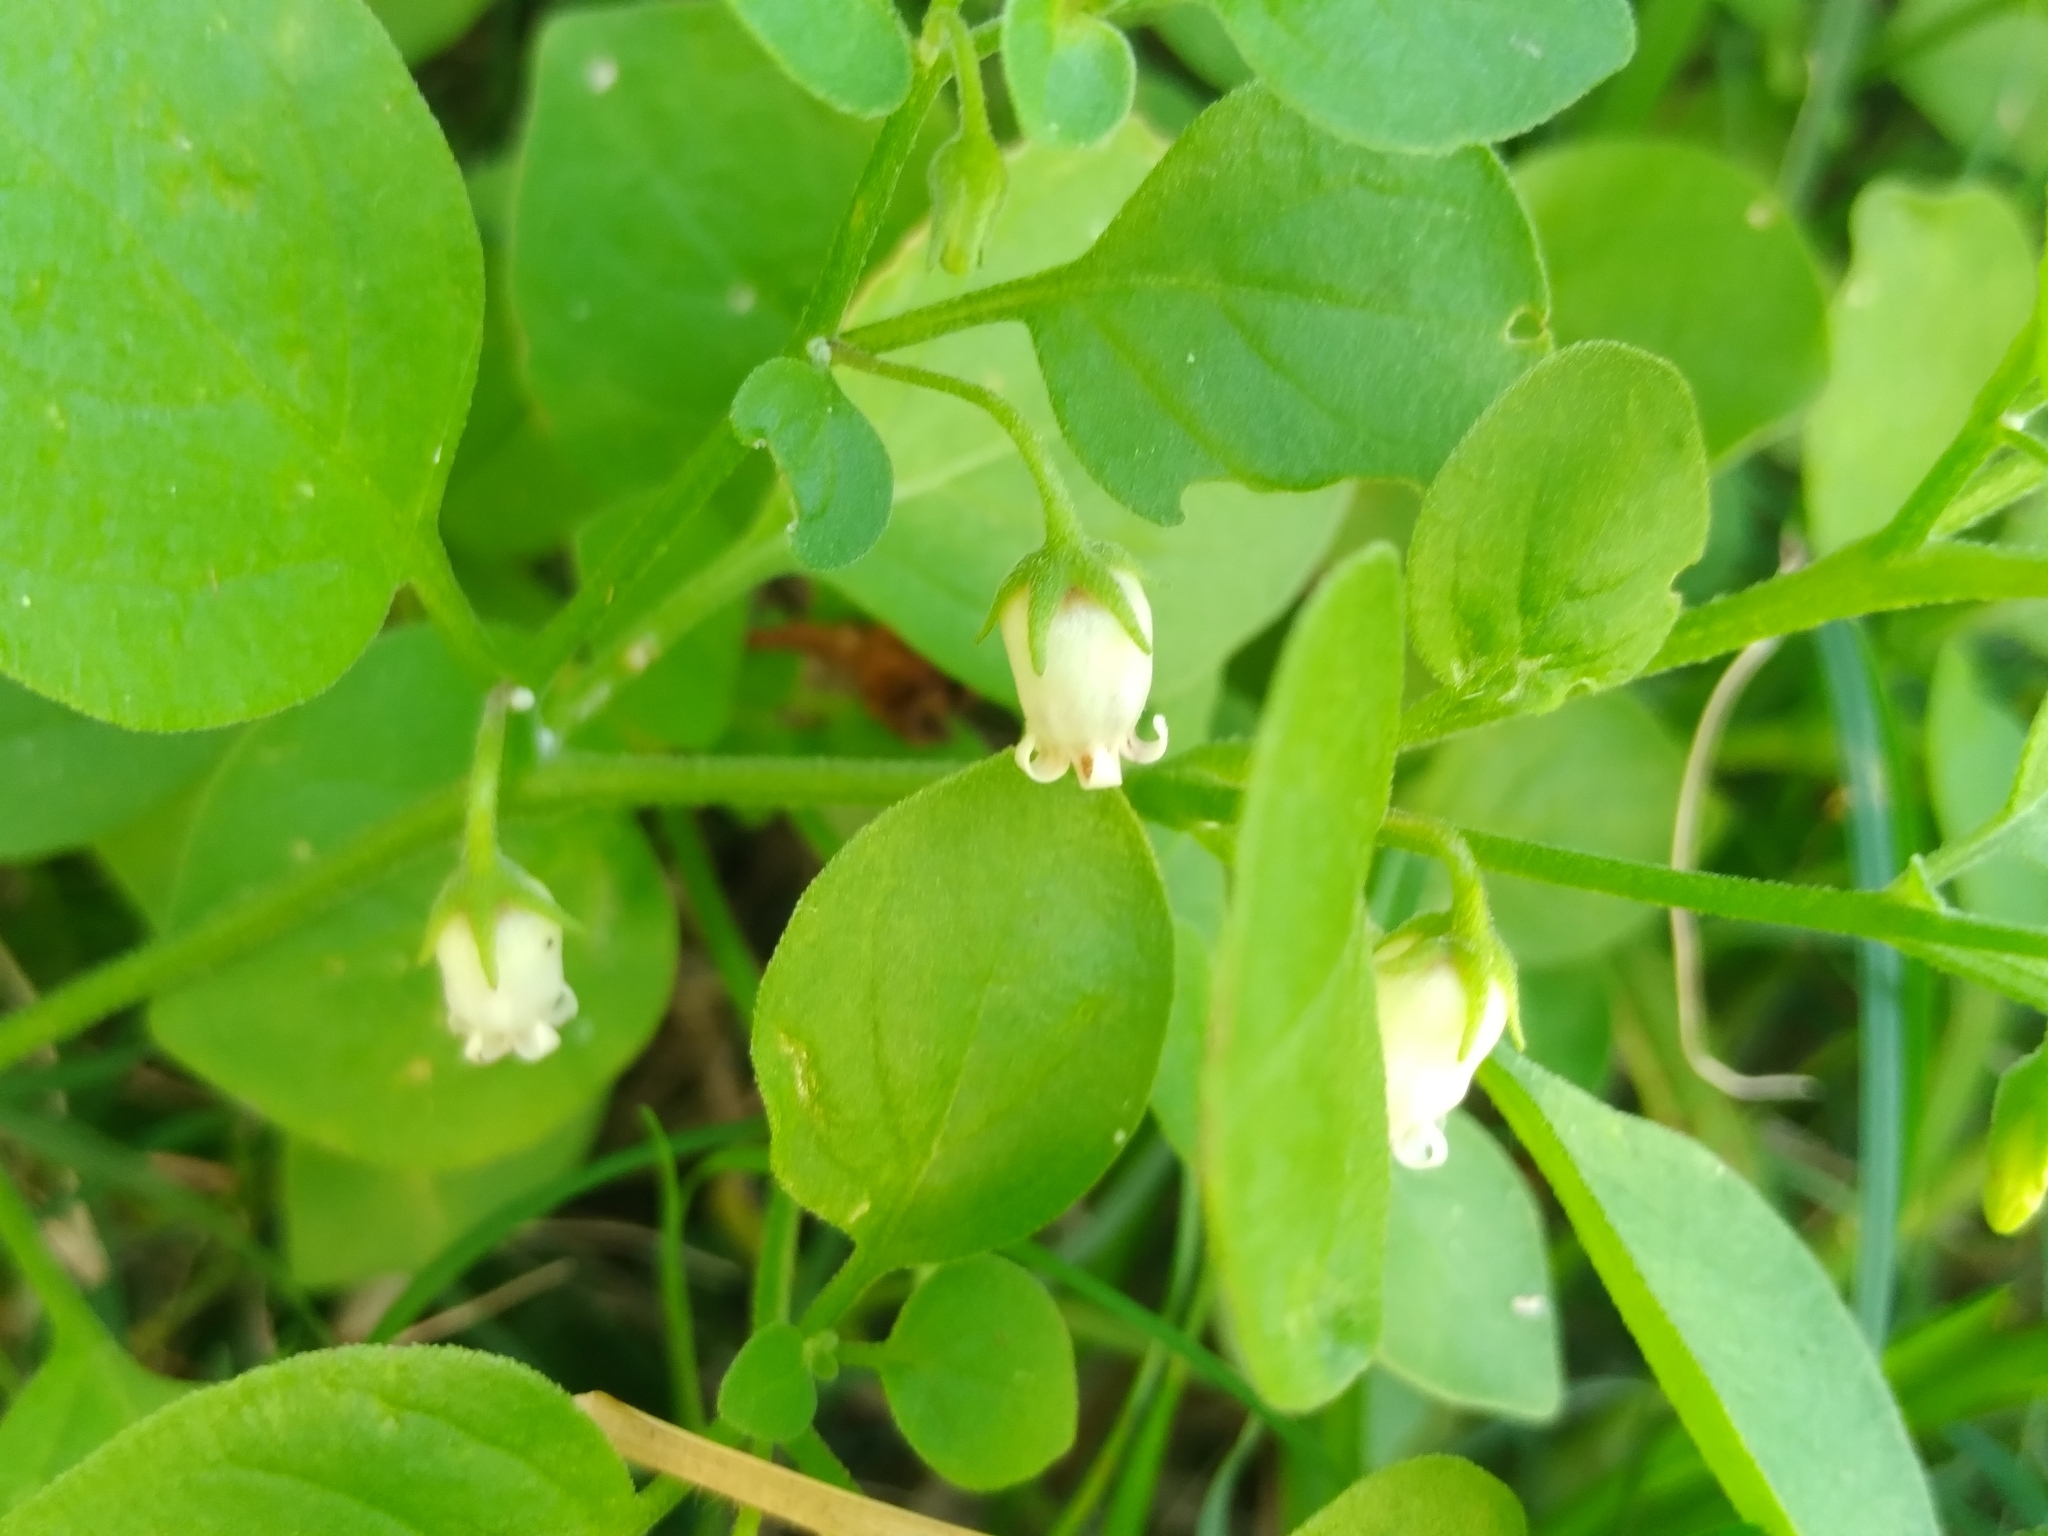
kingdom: Plantae
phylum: Tracheophyta
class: Magnoliopsida
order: Solanales
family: Solanaceae
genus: Salpichroa
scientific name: Salpichroa origanifolia
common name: Lily-of-the-valley-vine
